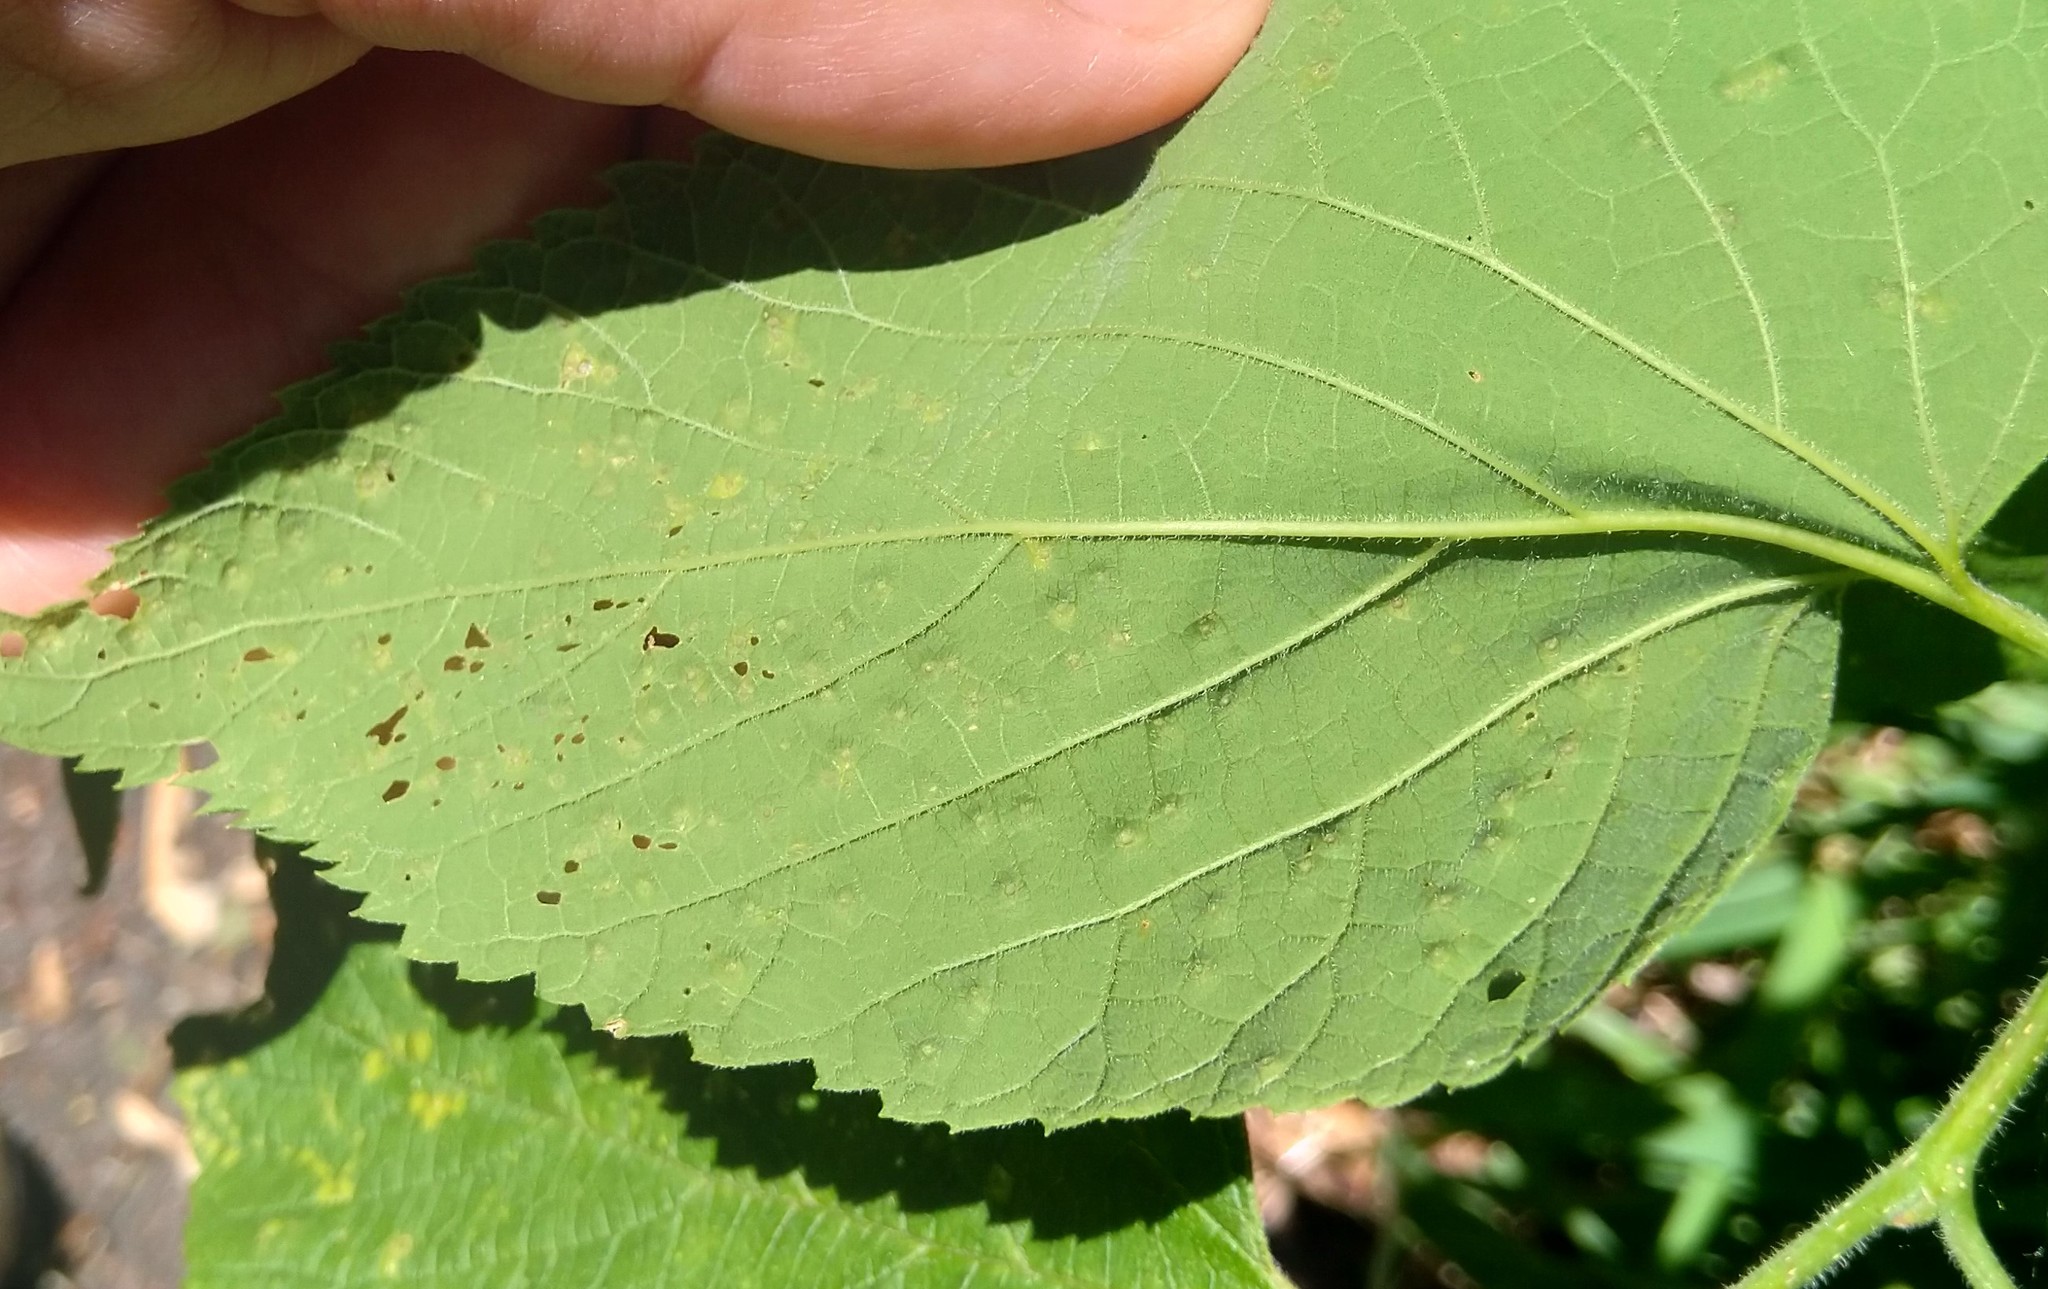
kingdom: Animalia
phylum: Arthropoda
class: Insecta
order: Hemiptera
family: Aphalaridae
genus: Pachypsylla
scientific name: Pachypsylla celtidisvesicula
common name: Hackberry blister gall psyllid
